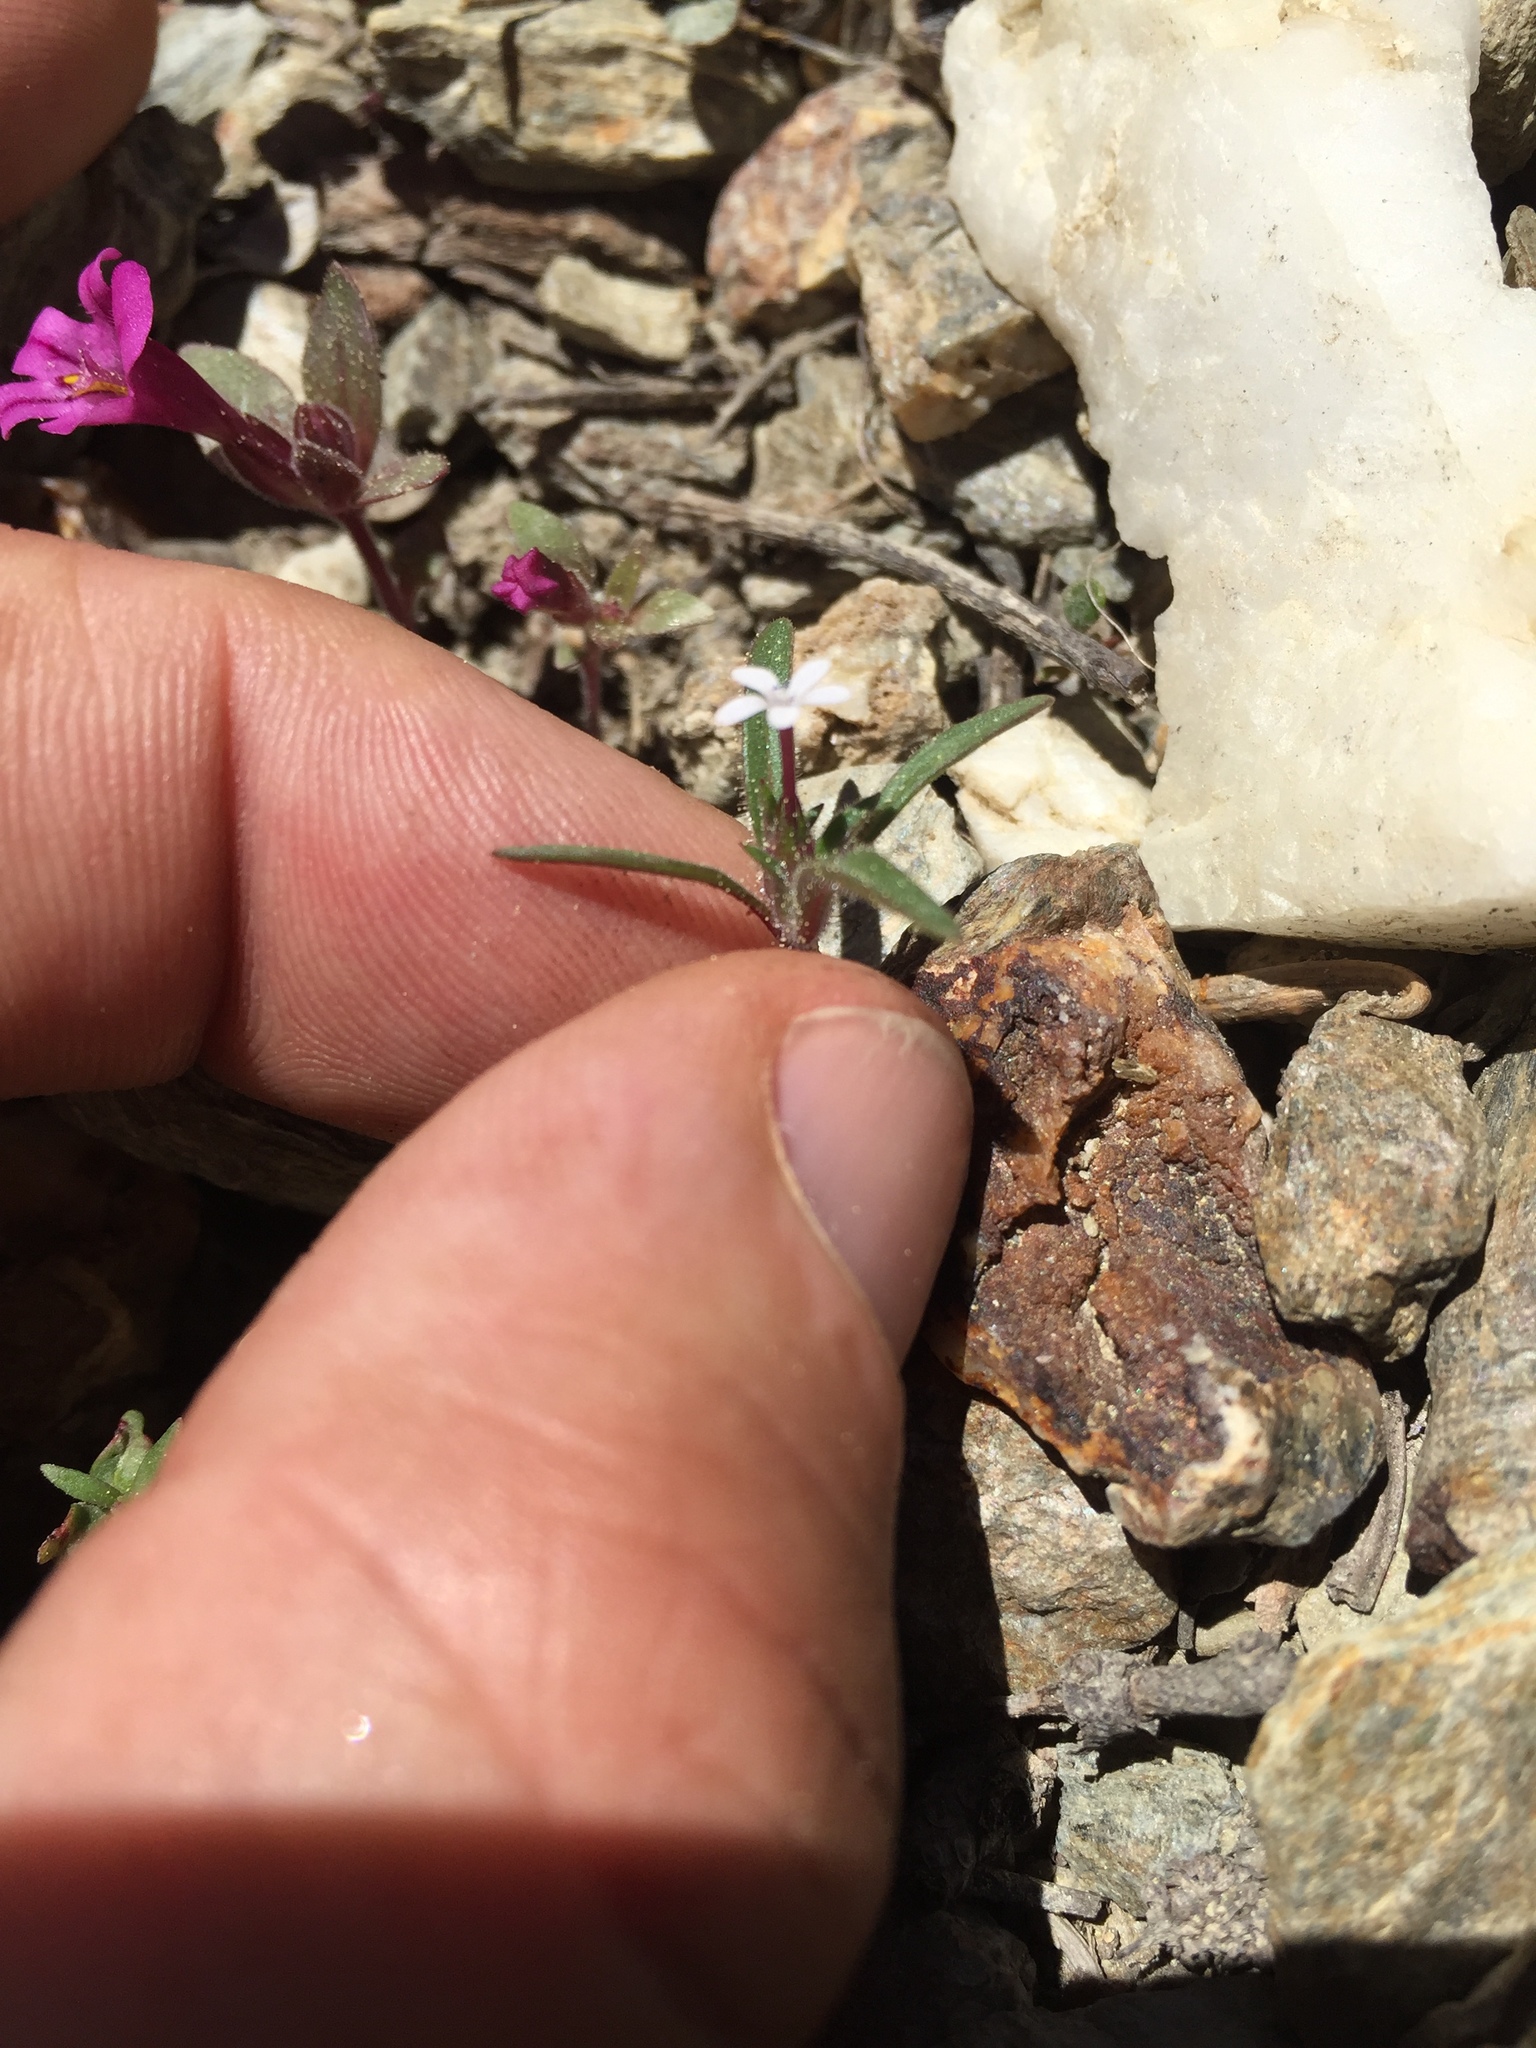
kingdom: Plantae
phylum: Tracheophyta
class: Magnoliopsida
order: Ericales
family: Polemoniaceae
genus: Collomia
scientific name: Collomia tinctoria
